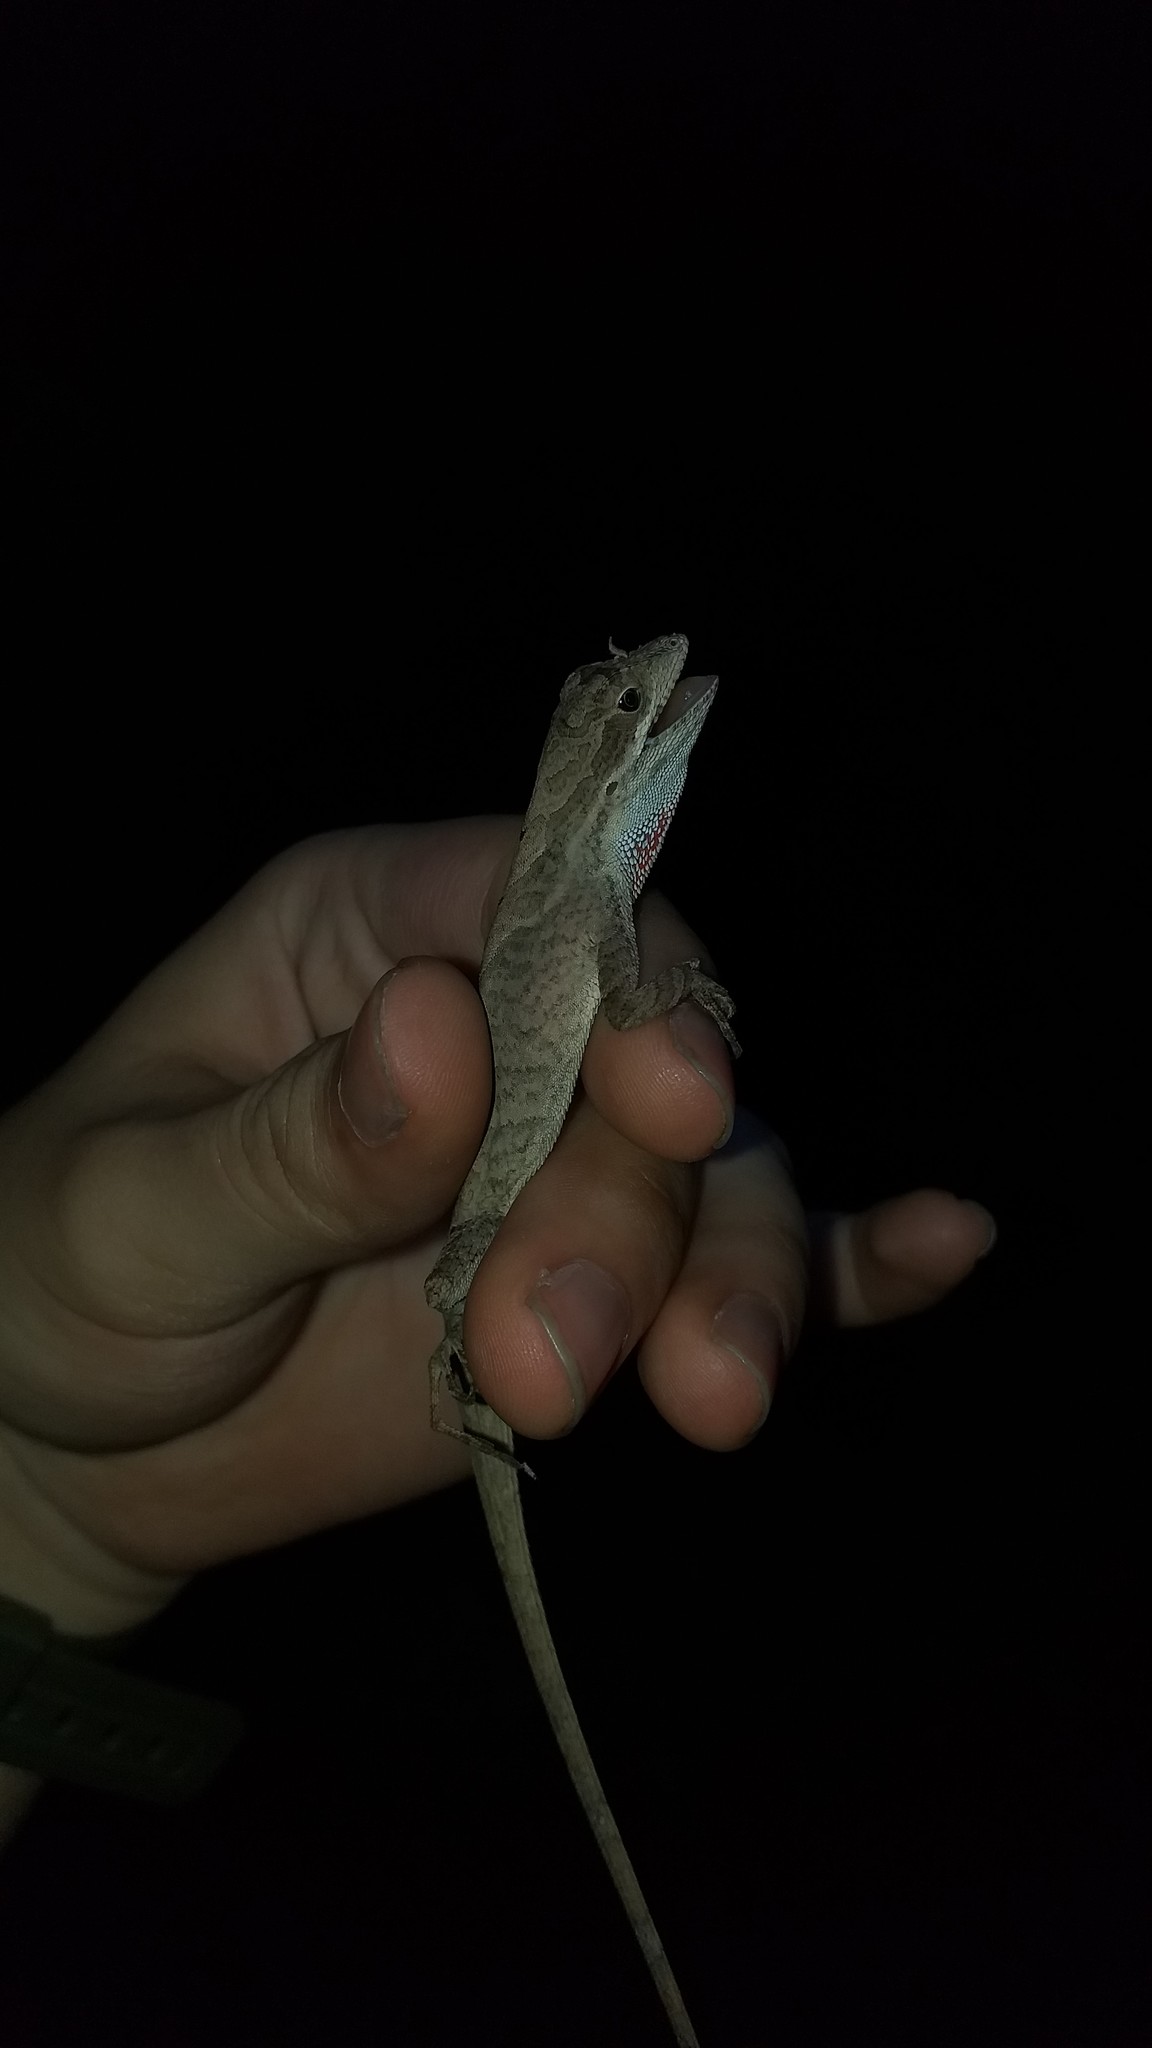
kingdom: Animalia
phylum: Chordata
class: Squamata
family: Dactyloidae
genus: Anolis
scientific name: Anolis scypheus
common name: Yellow-tongued anole
